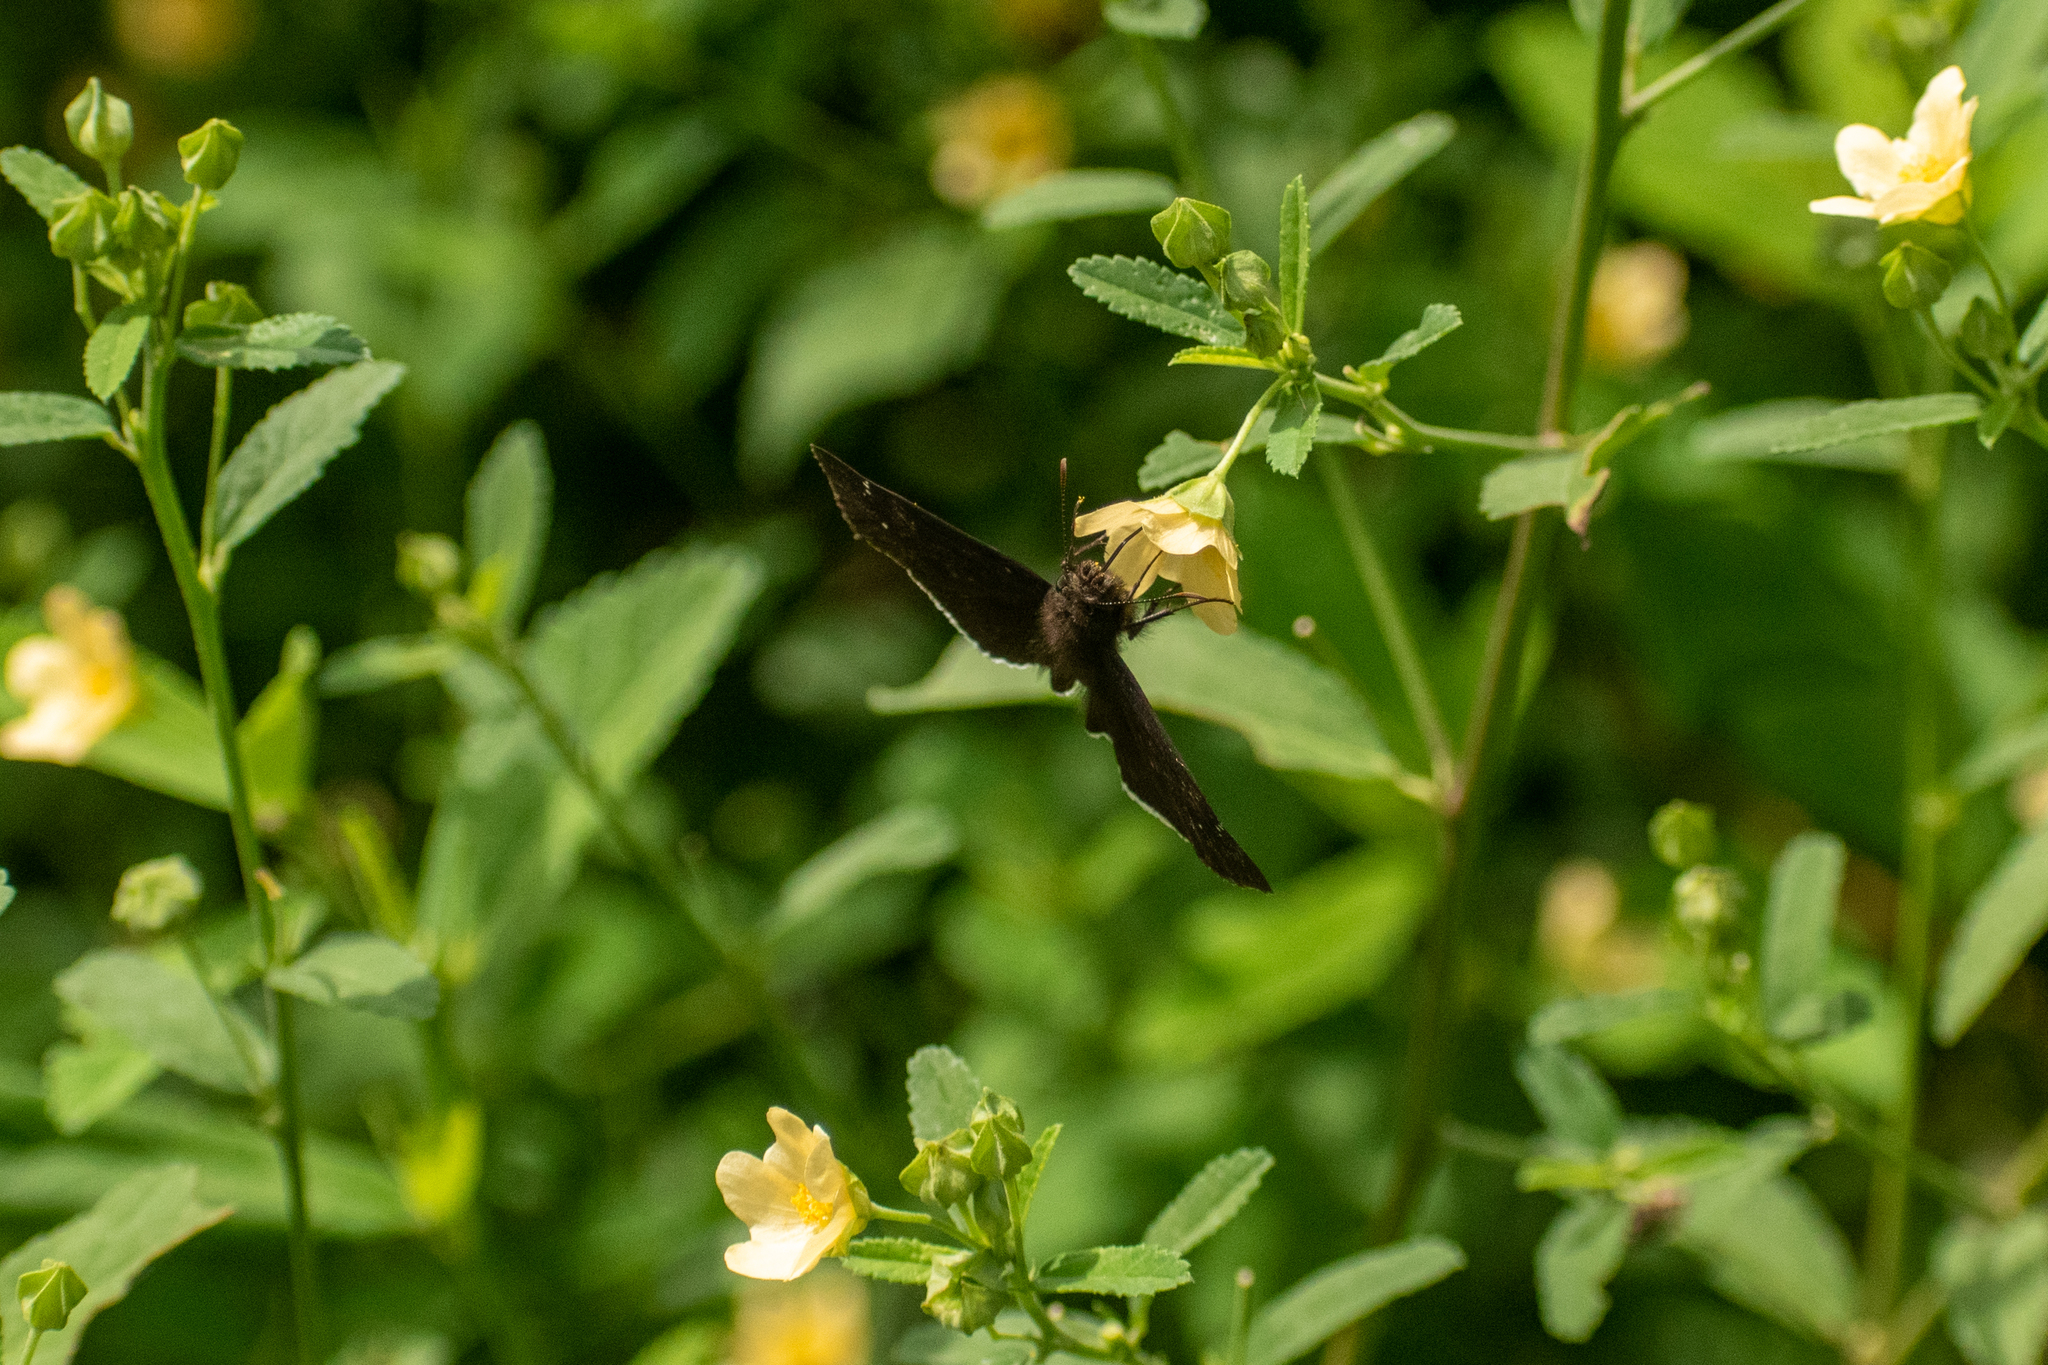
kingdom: Animalia
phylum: Arthropoda
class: Insecta
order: Lepidoptera
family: Hesperiidae
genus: Erynnis
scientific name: Erynnis funeralis
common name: Funereal duskywing
